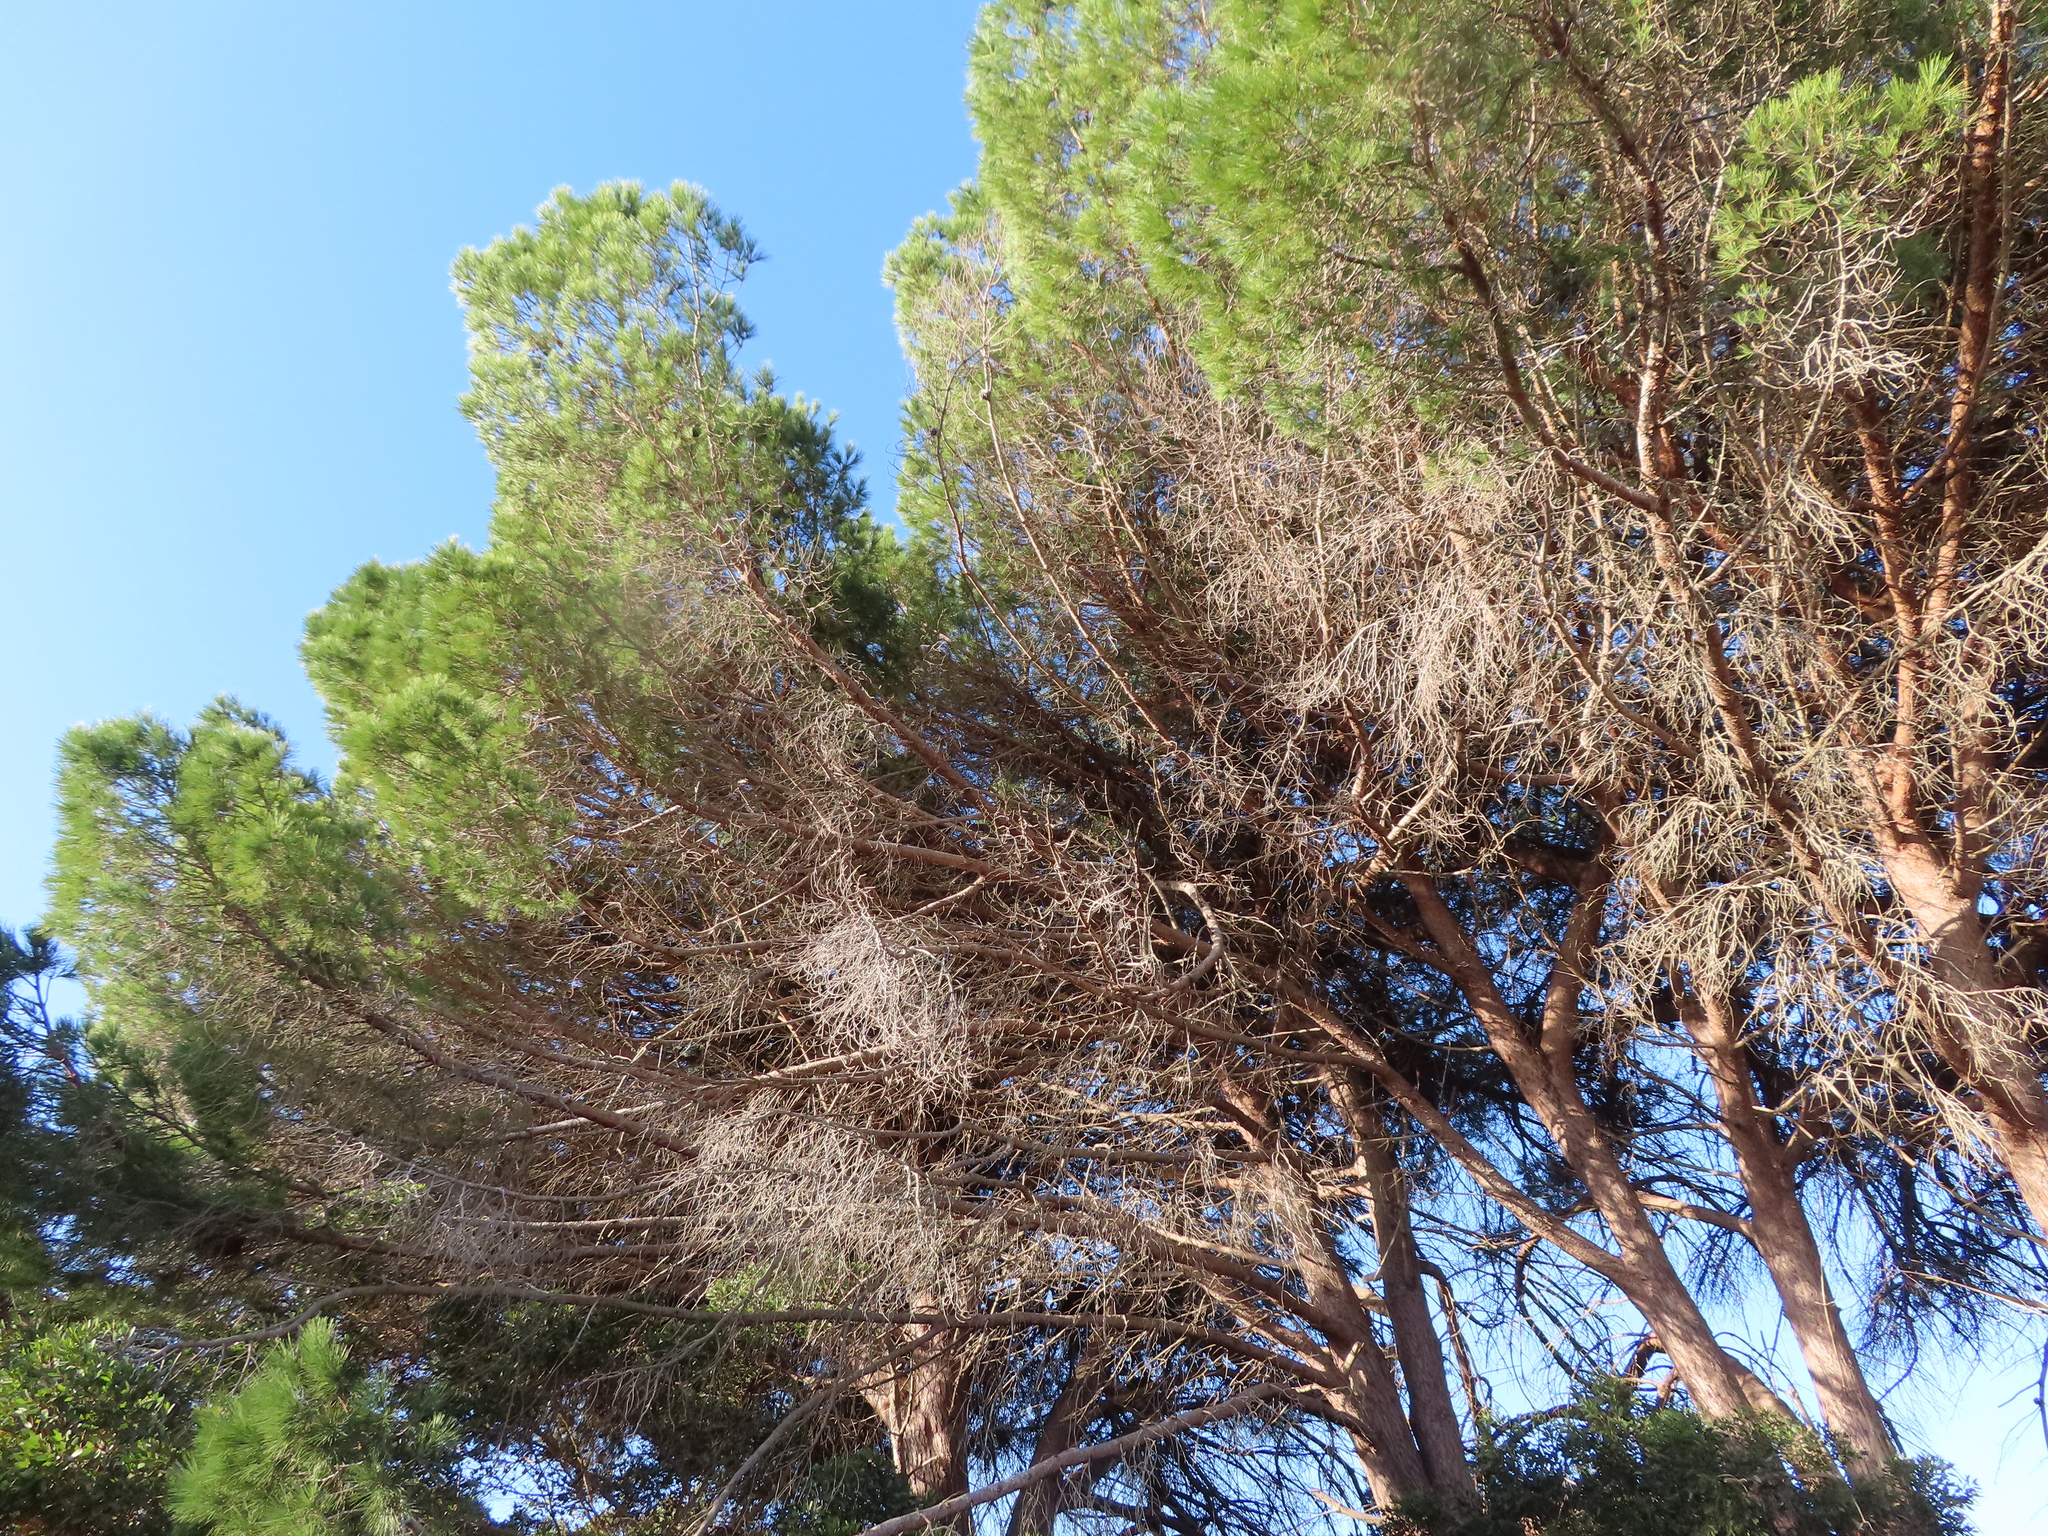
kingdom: Plantae
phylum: Tracheophyta
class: Pinopsida
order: Pinales
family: Pinaceae
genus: Pinus
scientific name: Pinus pinea
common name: Italian stone pine
